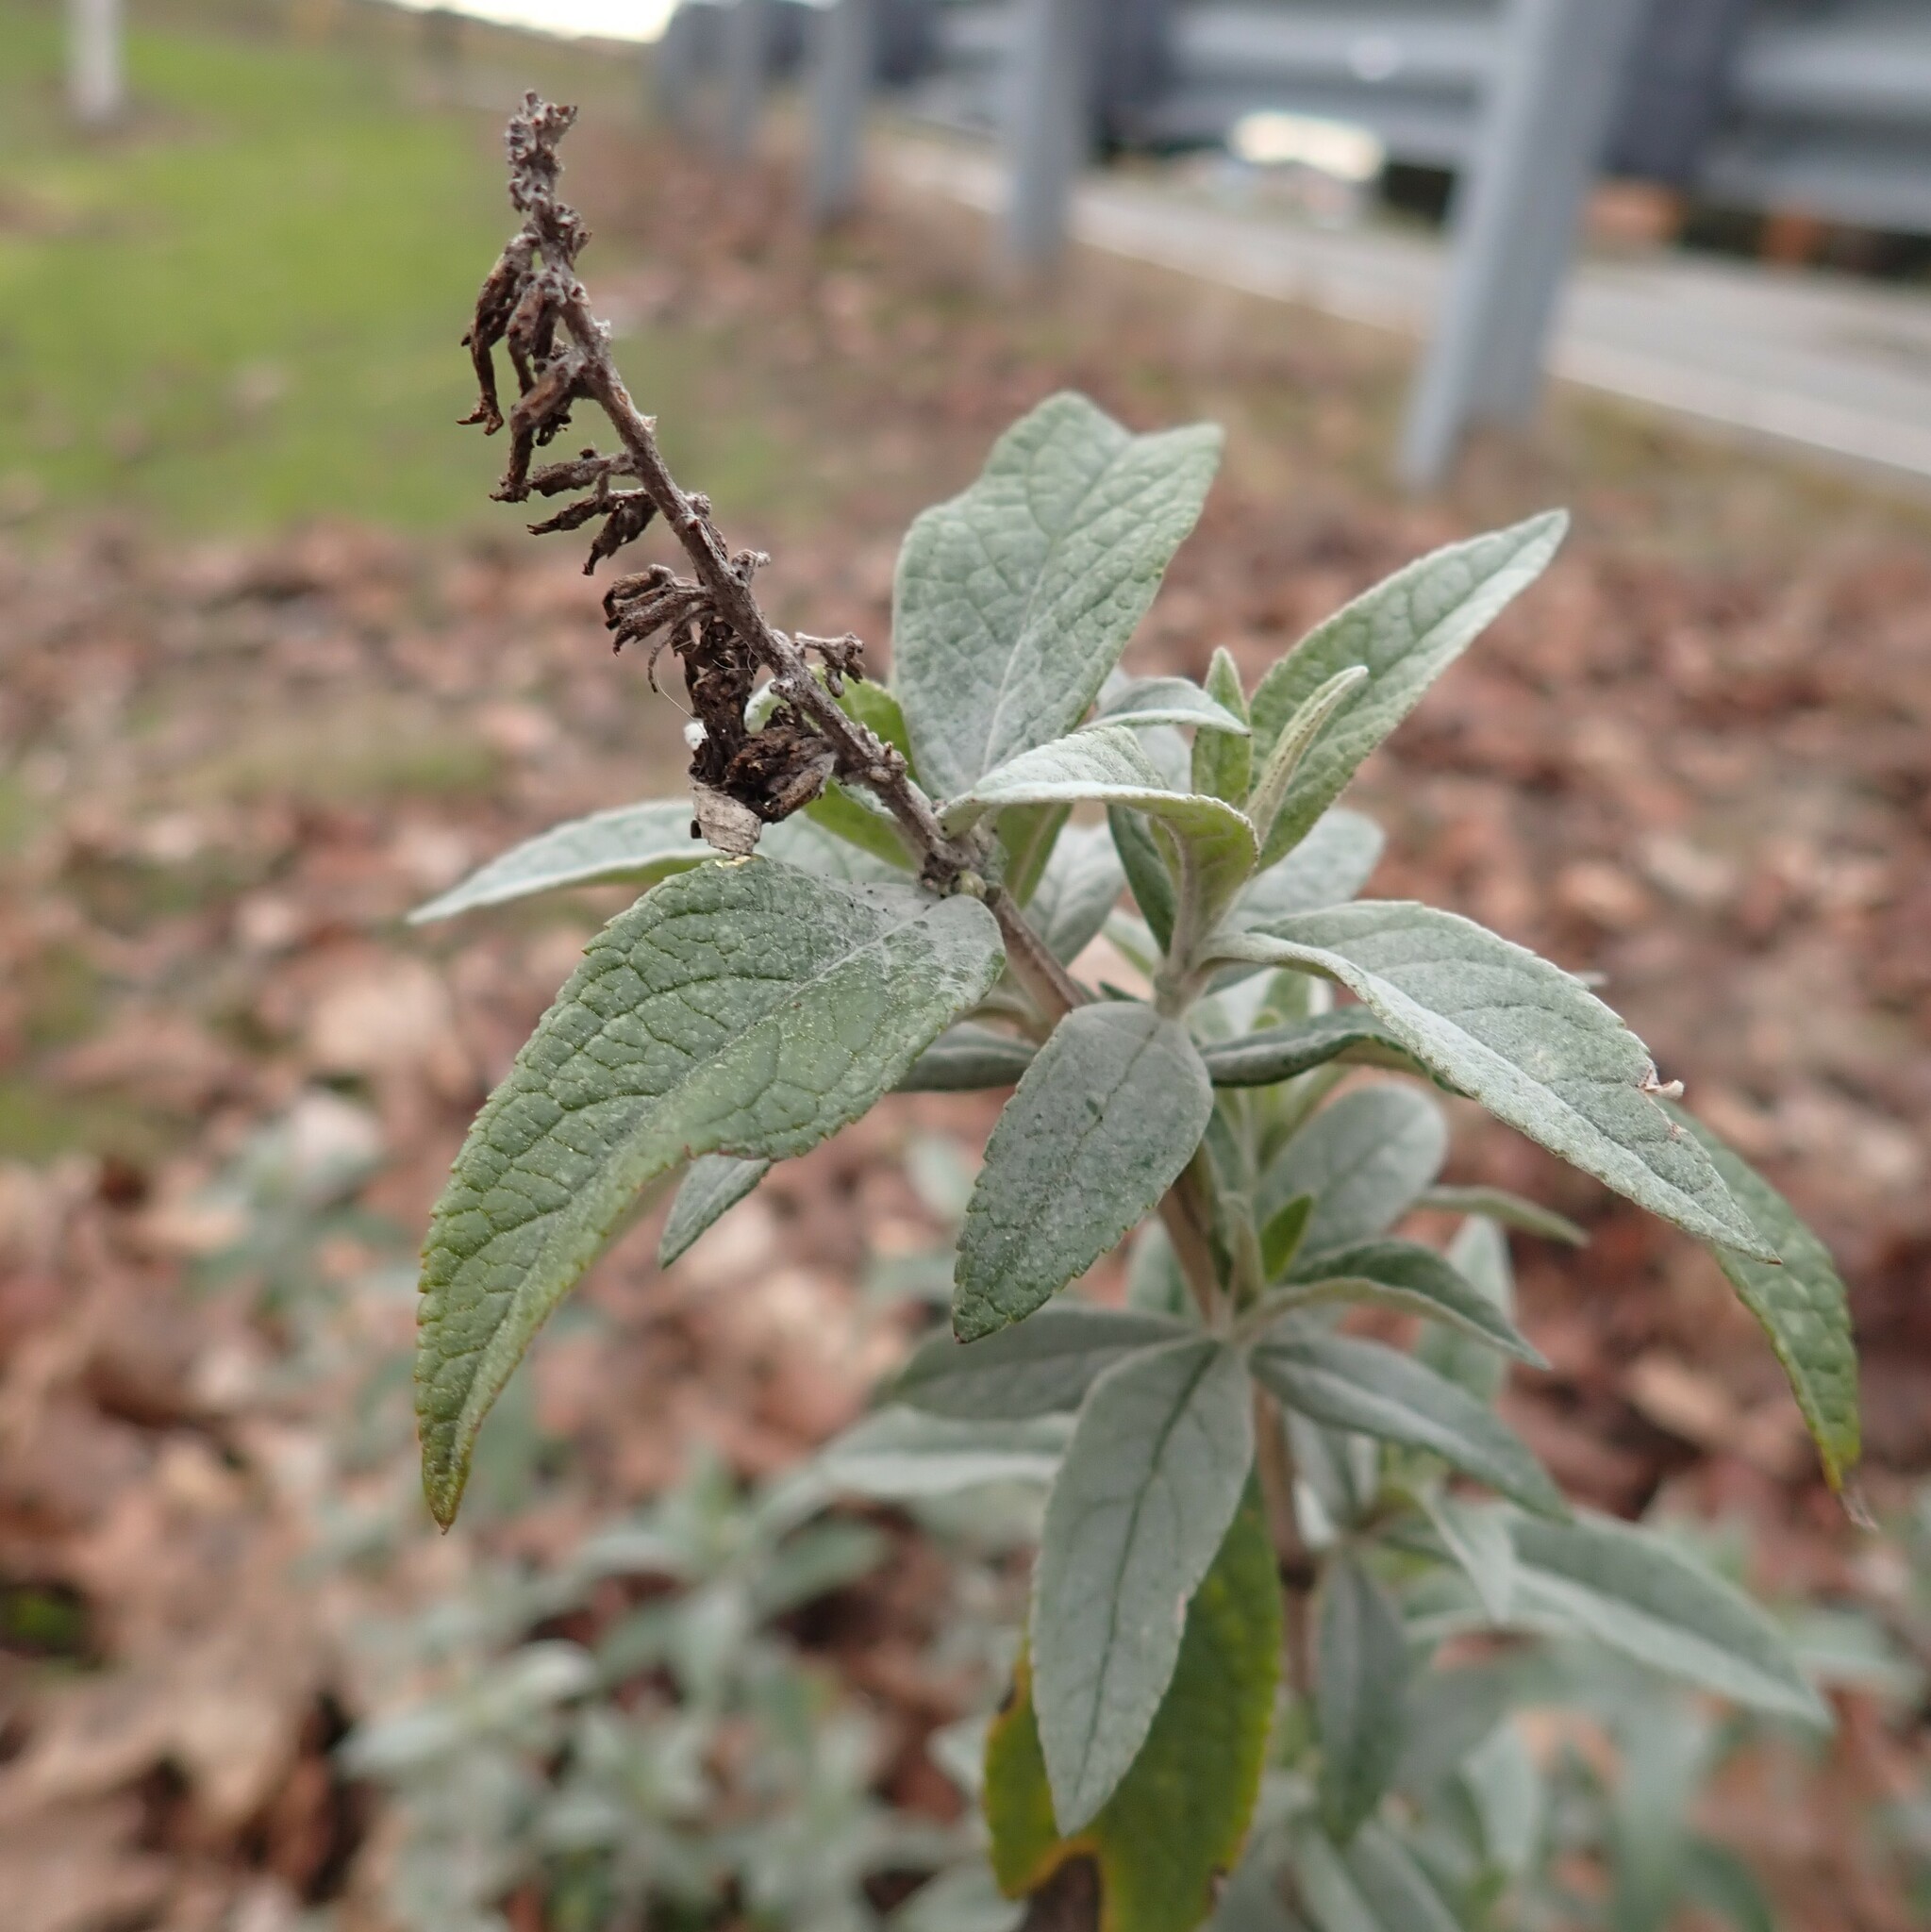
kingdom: Plantae
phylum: Tracheophyta
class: Magnoliopsida
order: Lamiales
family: Scrophulariaceae
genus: Buddleja
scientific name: Buddleja davidii
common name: Butterfly-bush
